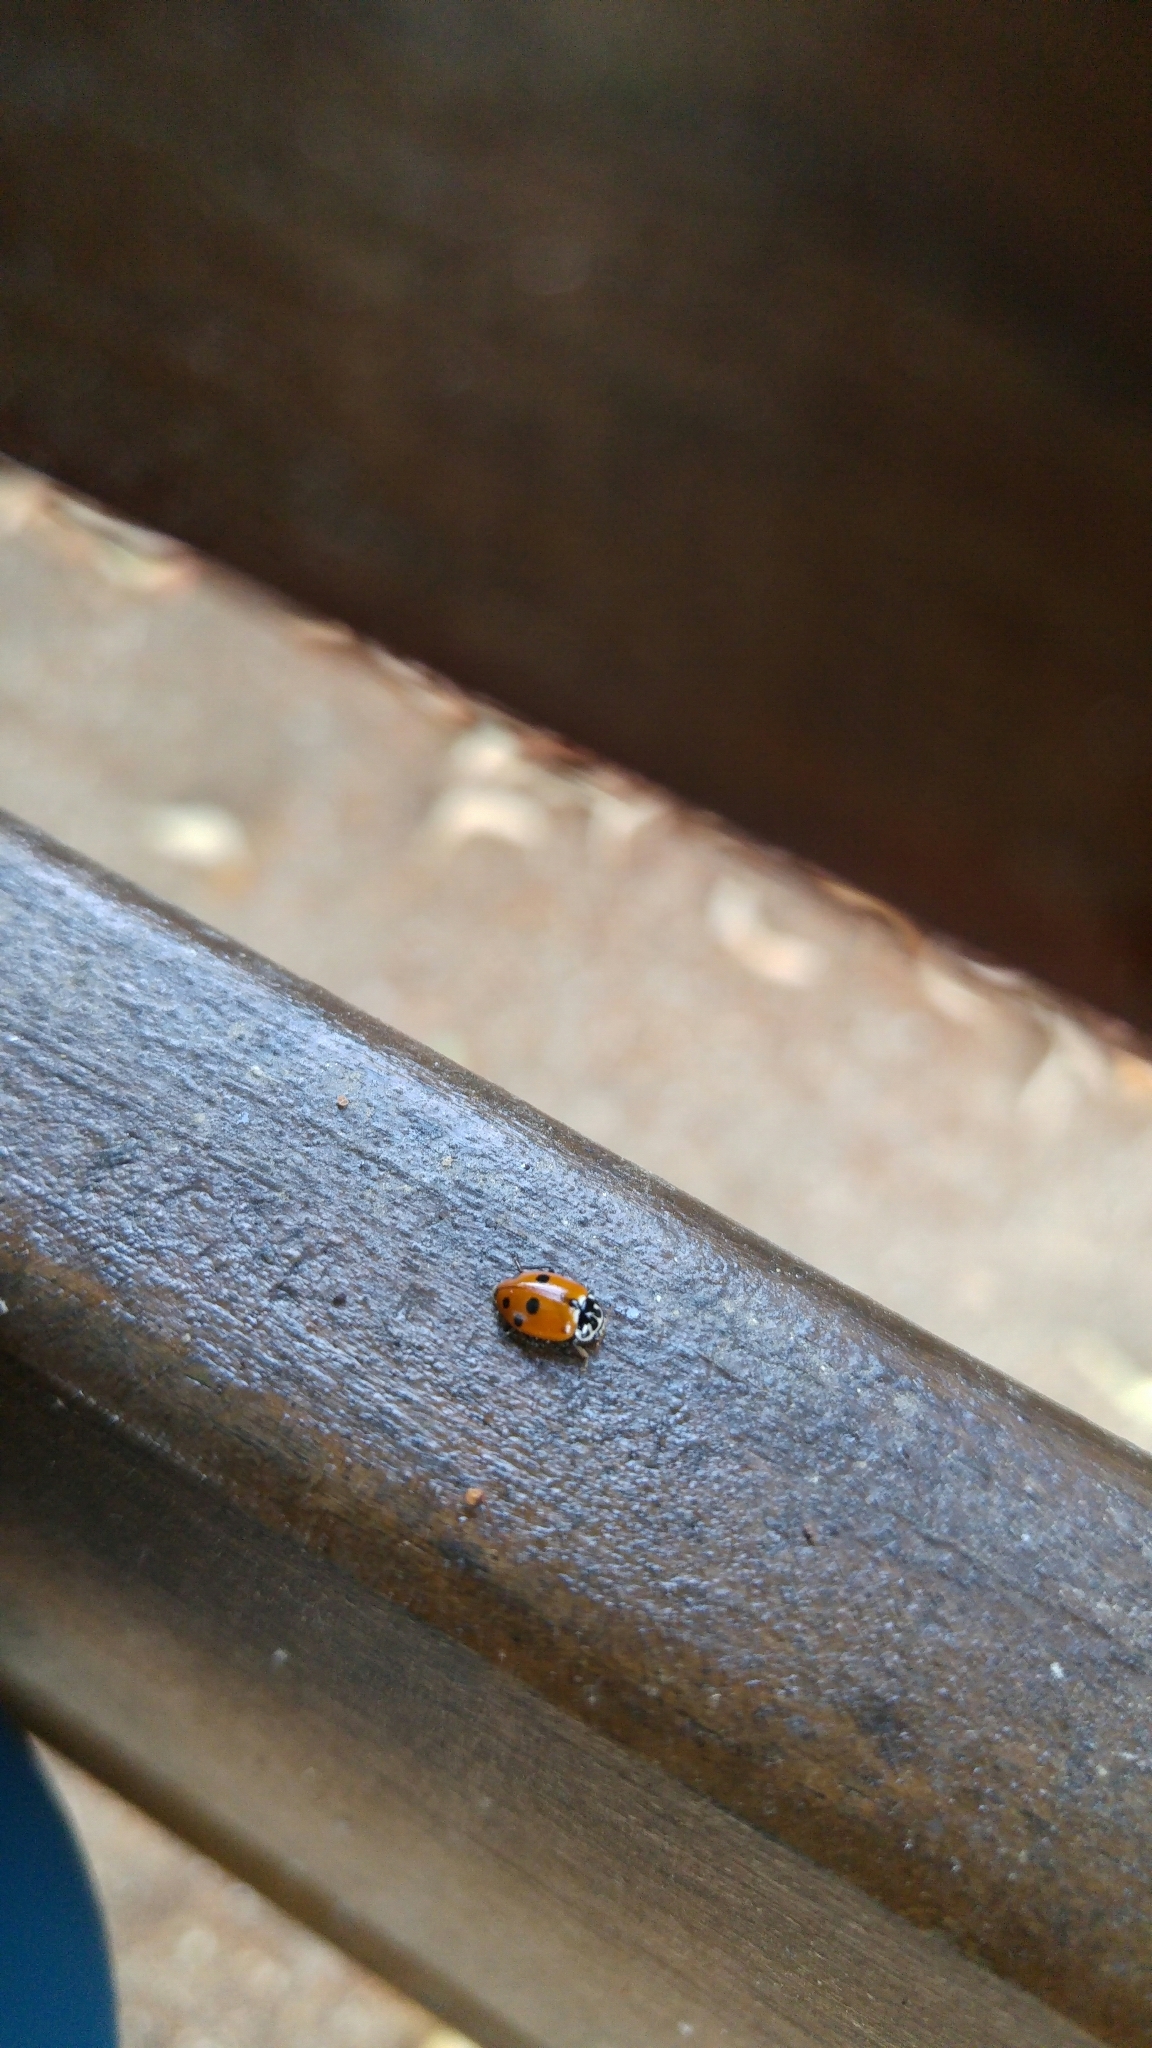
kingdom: Animalia
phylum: Arthropoda
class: Insecta
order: Coleoptera
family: Coccinellidae
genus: Hippodamia
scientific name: Hippodamia variegata
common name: Ladybird beetle
